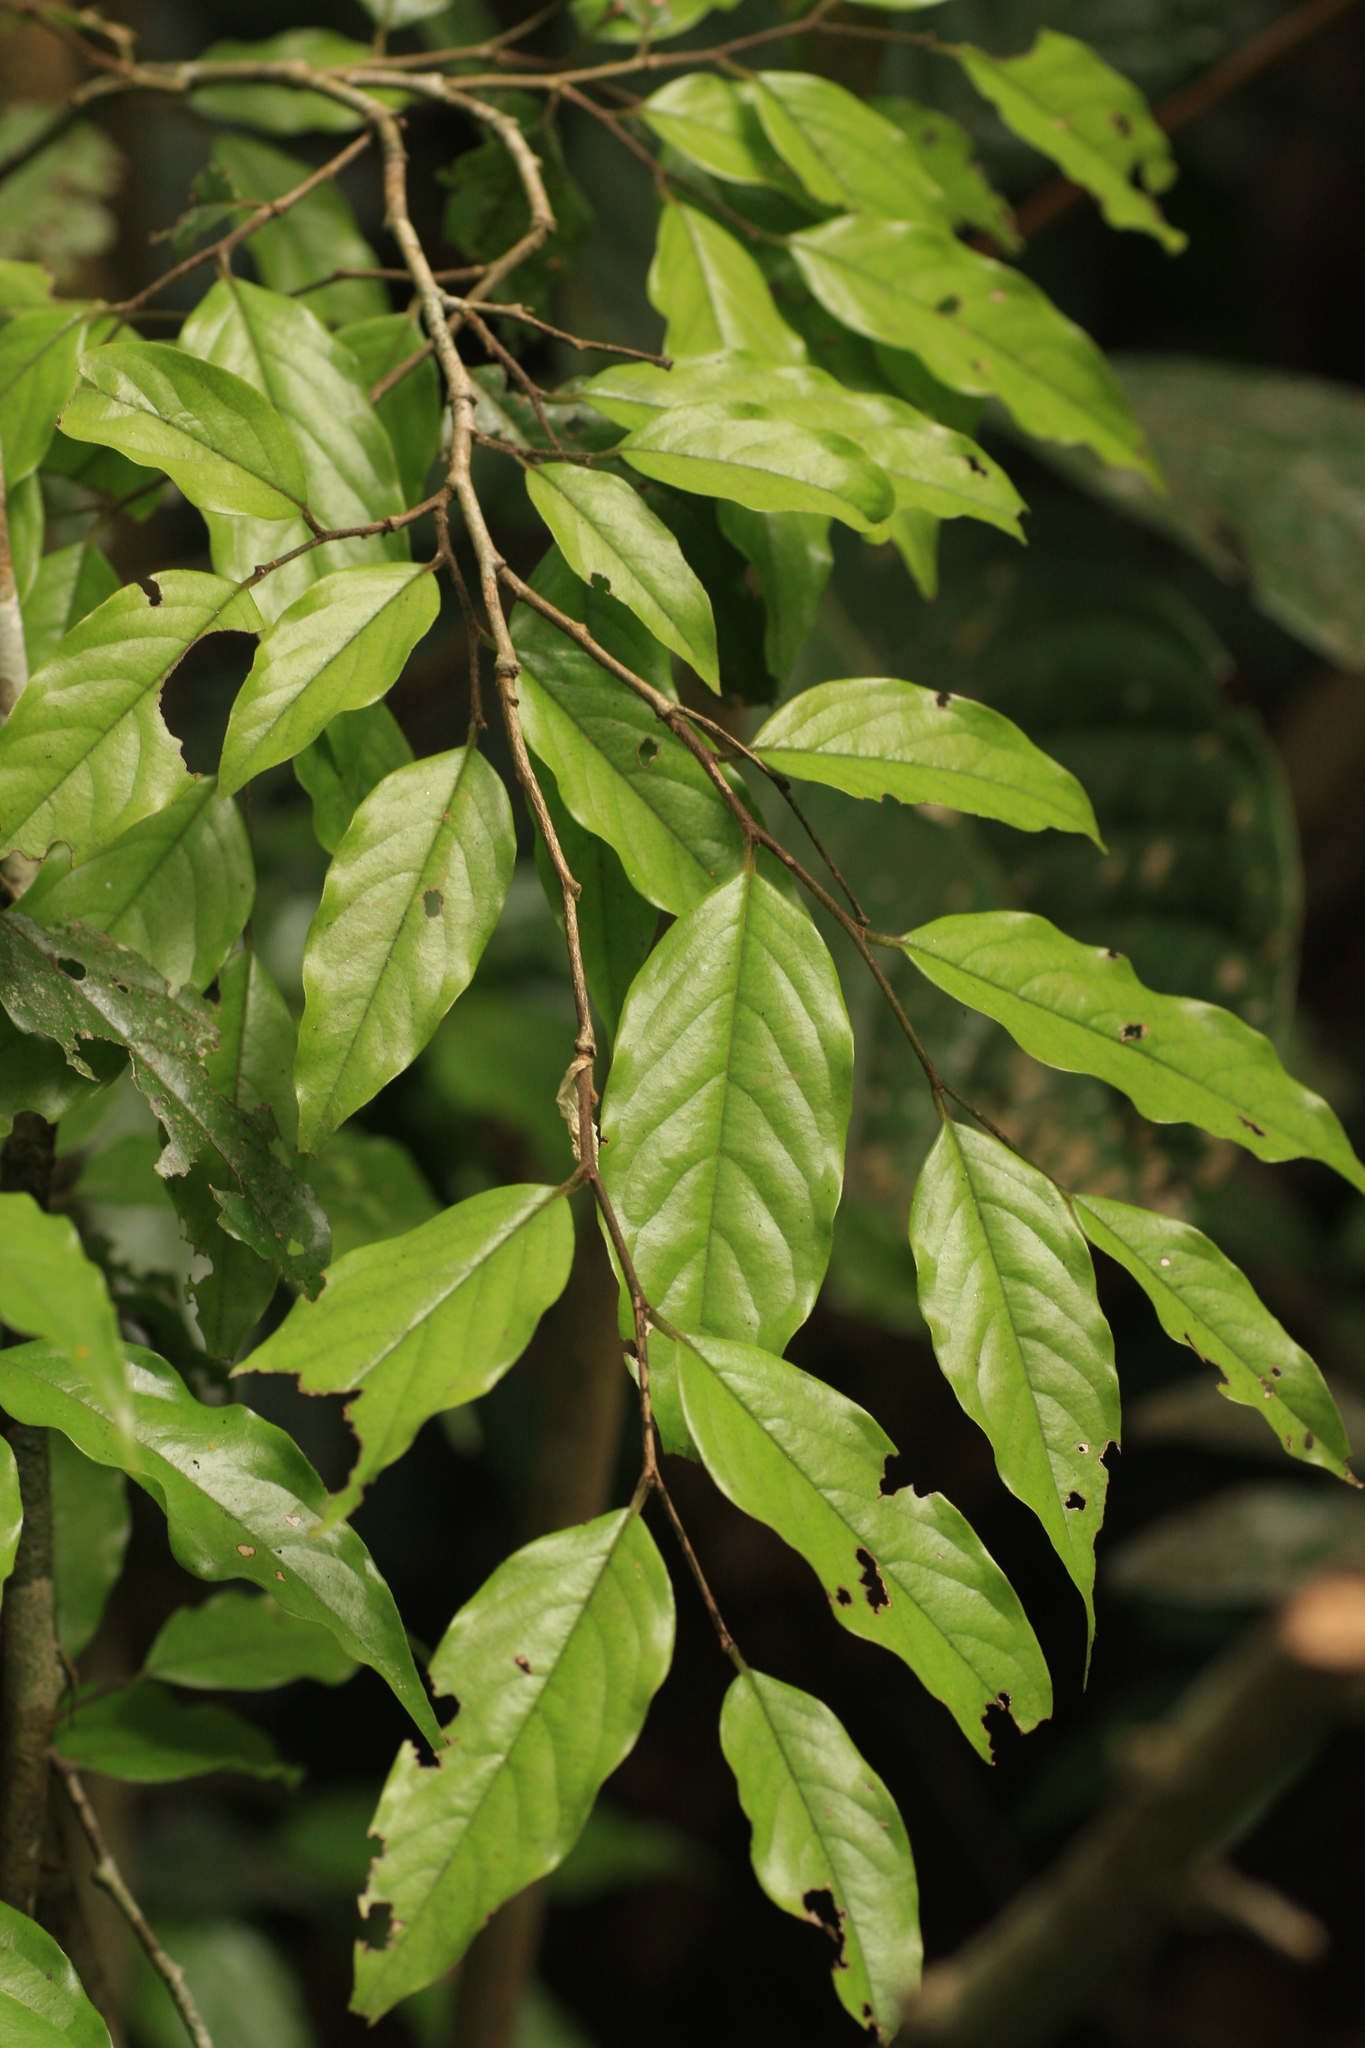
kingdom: Plantae
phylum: Tracheophyta
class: Magnoliopsida
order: Magnoliales
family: Annonaceae
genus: Meiogyne
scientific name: Meiogyne pannosa
